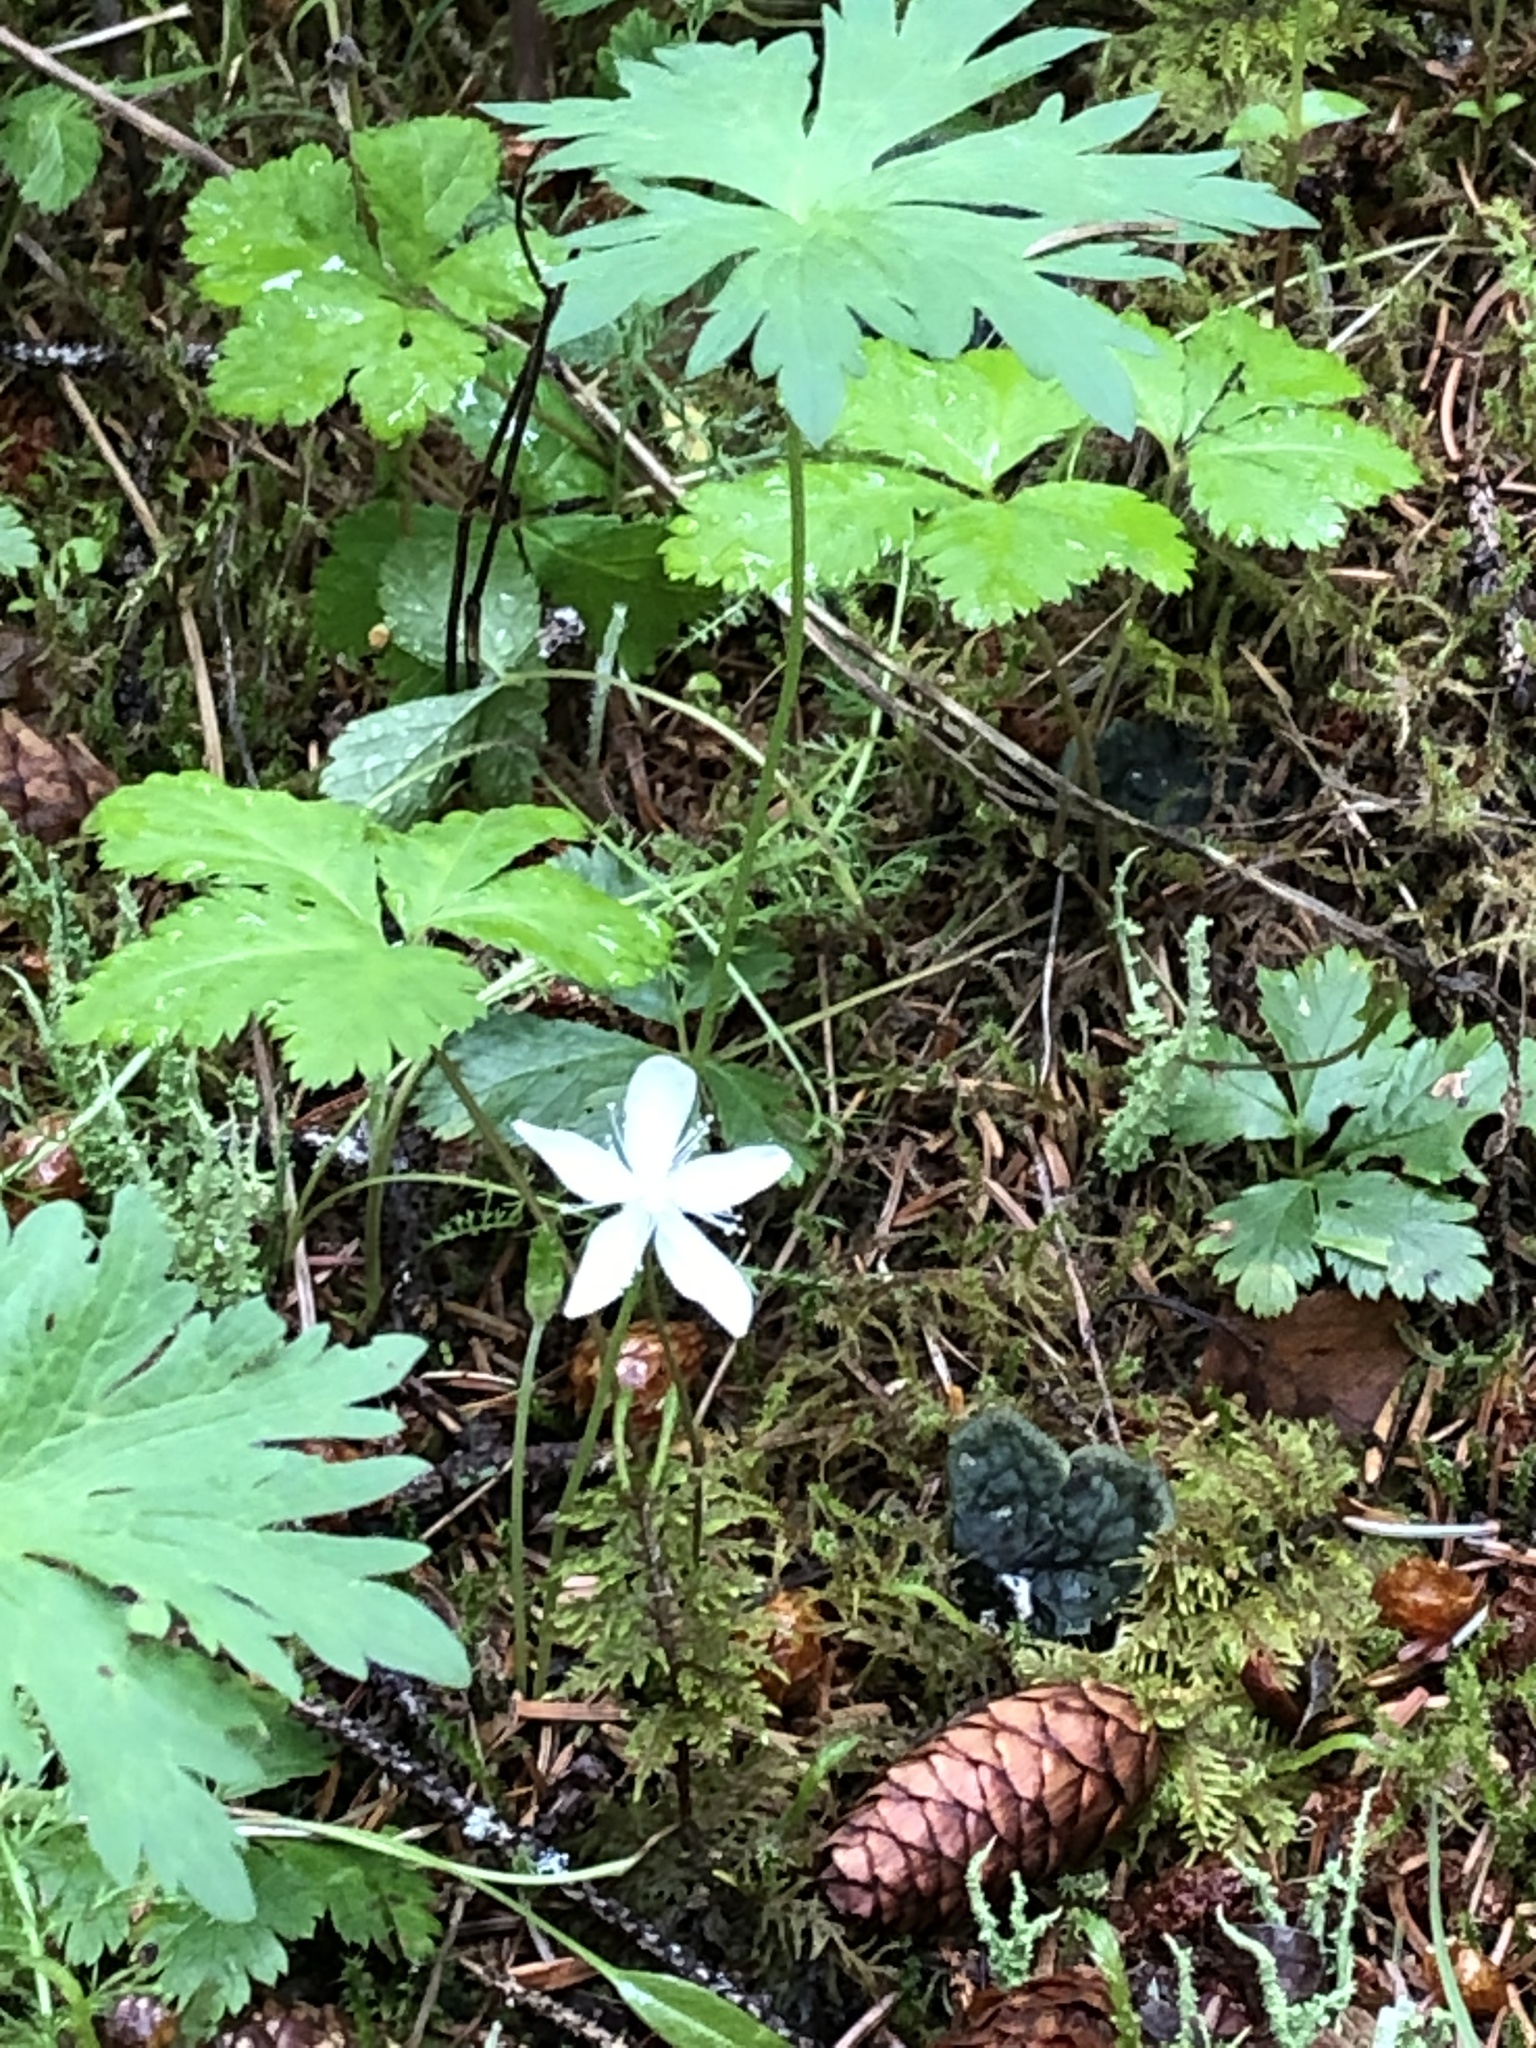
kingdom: Plantae
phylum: Tracheophyta
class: Magnoliopsida
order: Rosales
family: Rosaceae
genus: Rubus
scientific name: Rubus pedatus
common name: Creeping raspberry
